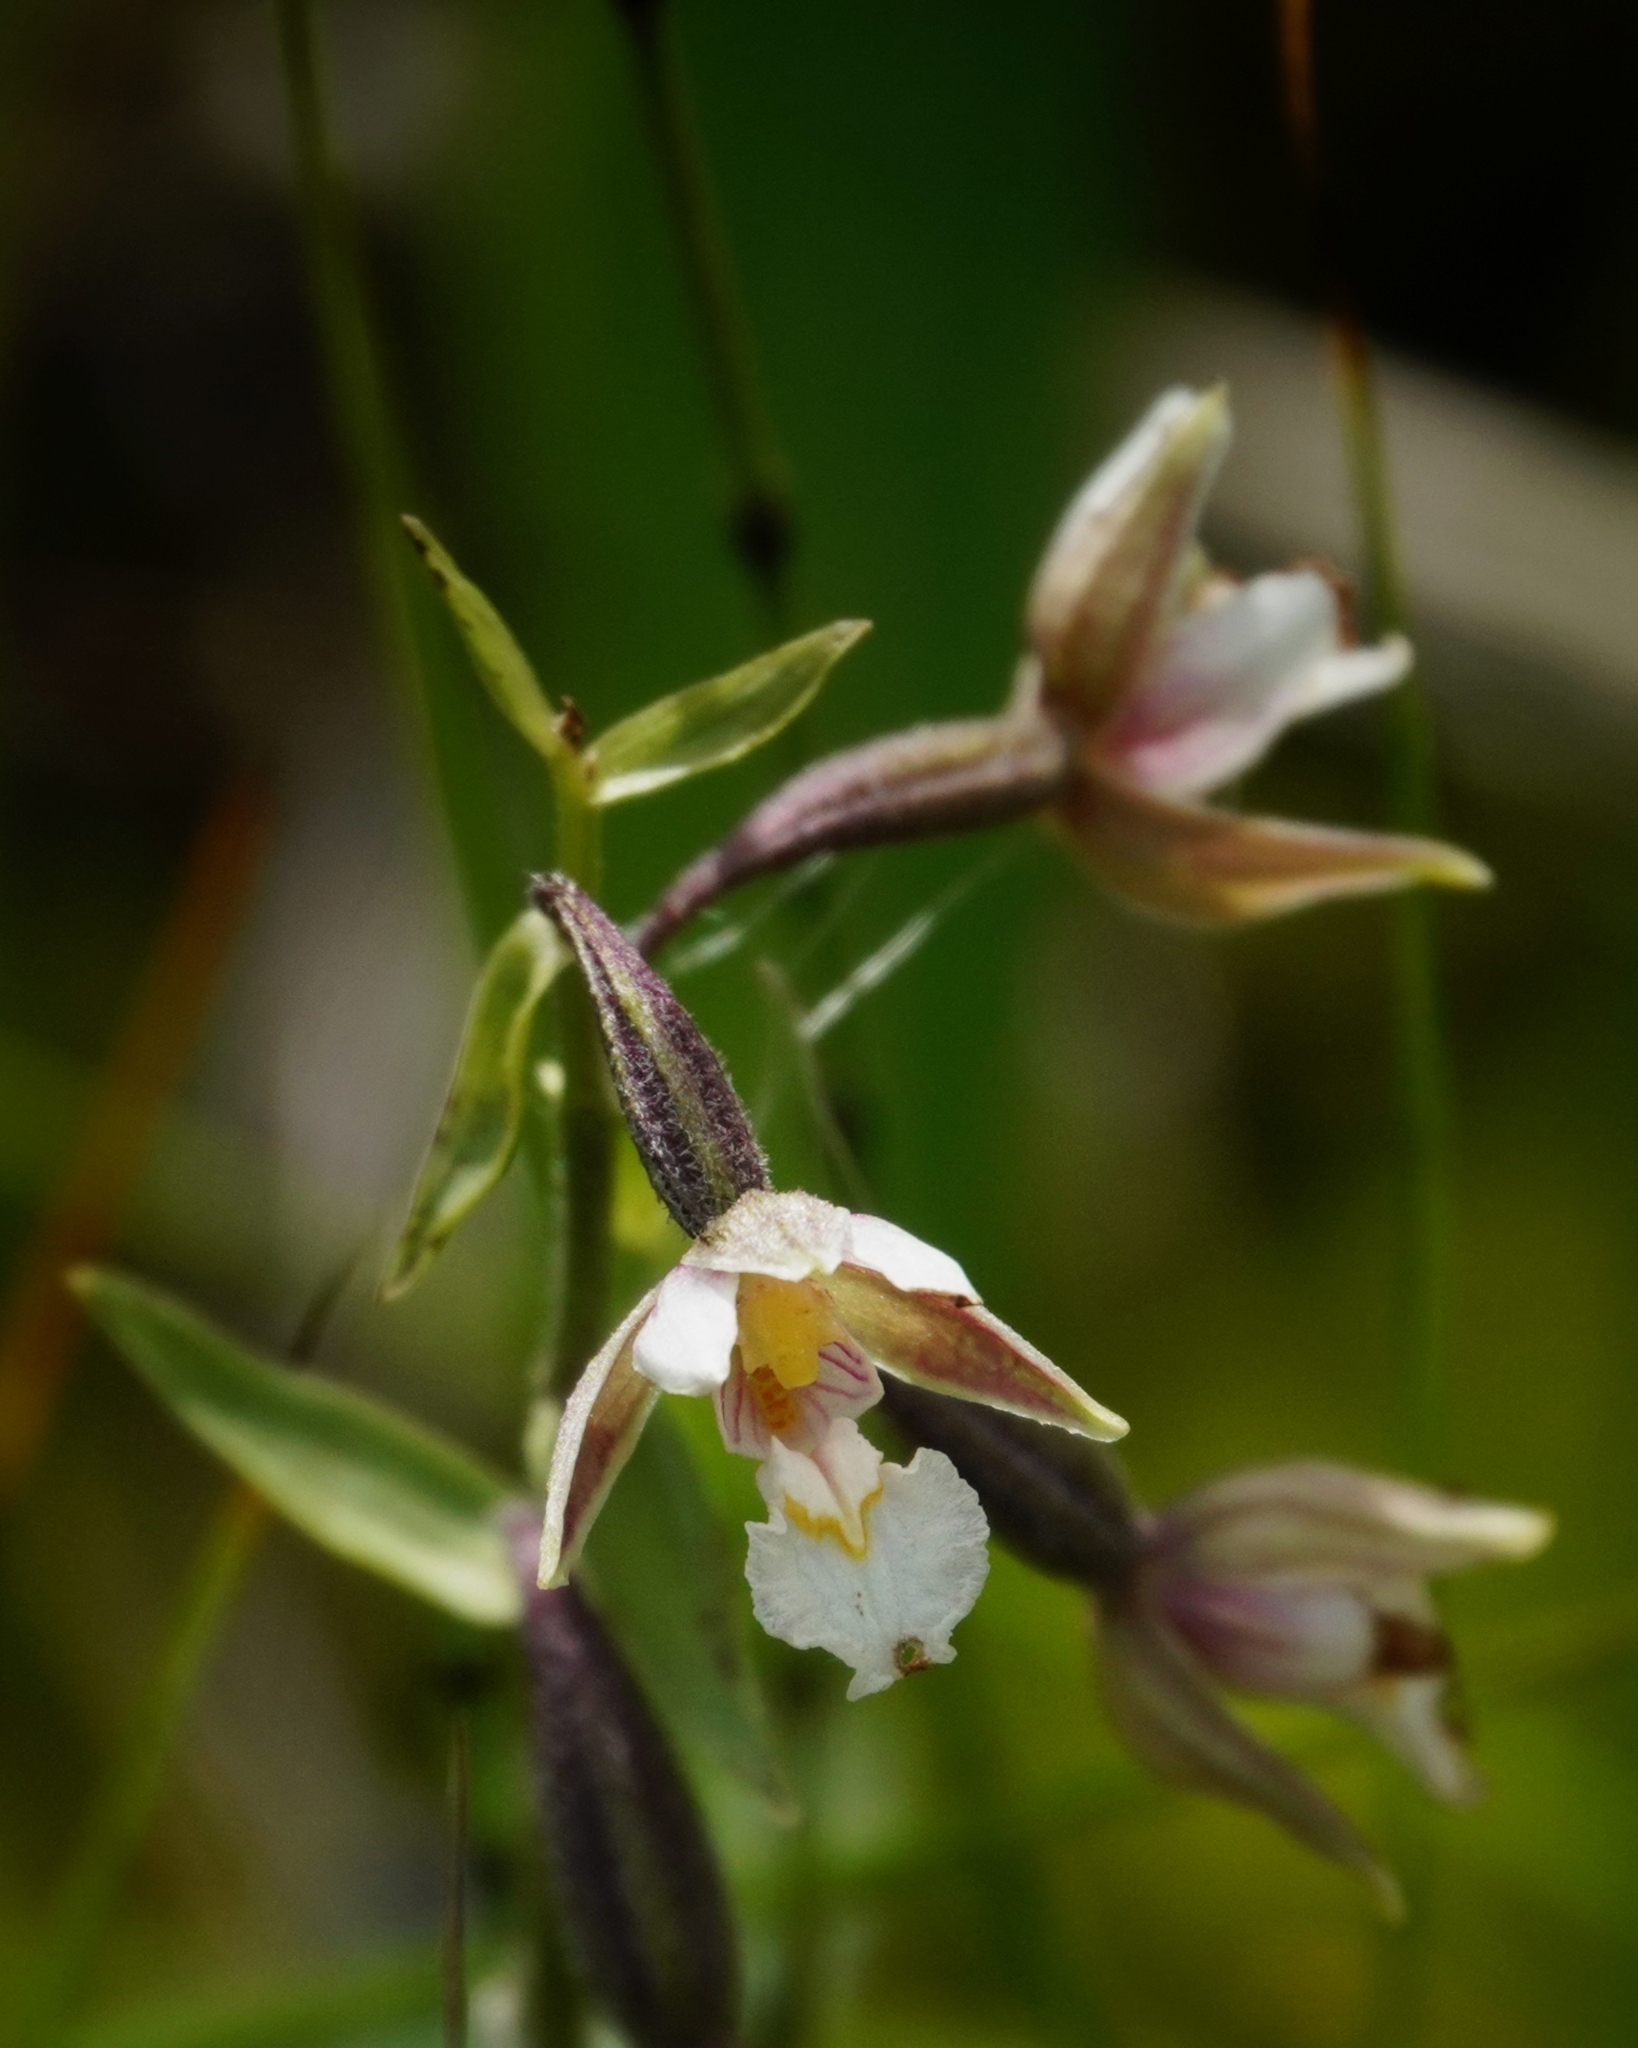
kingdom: Plantae
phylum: Tracheophyta
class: Liliopsida
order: Asparagales
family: Orchidaceae
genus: Epipactis
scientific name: Epipactis palustris
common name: Marsh helleborine
